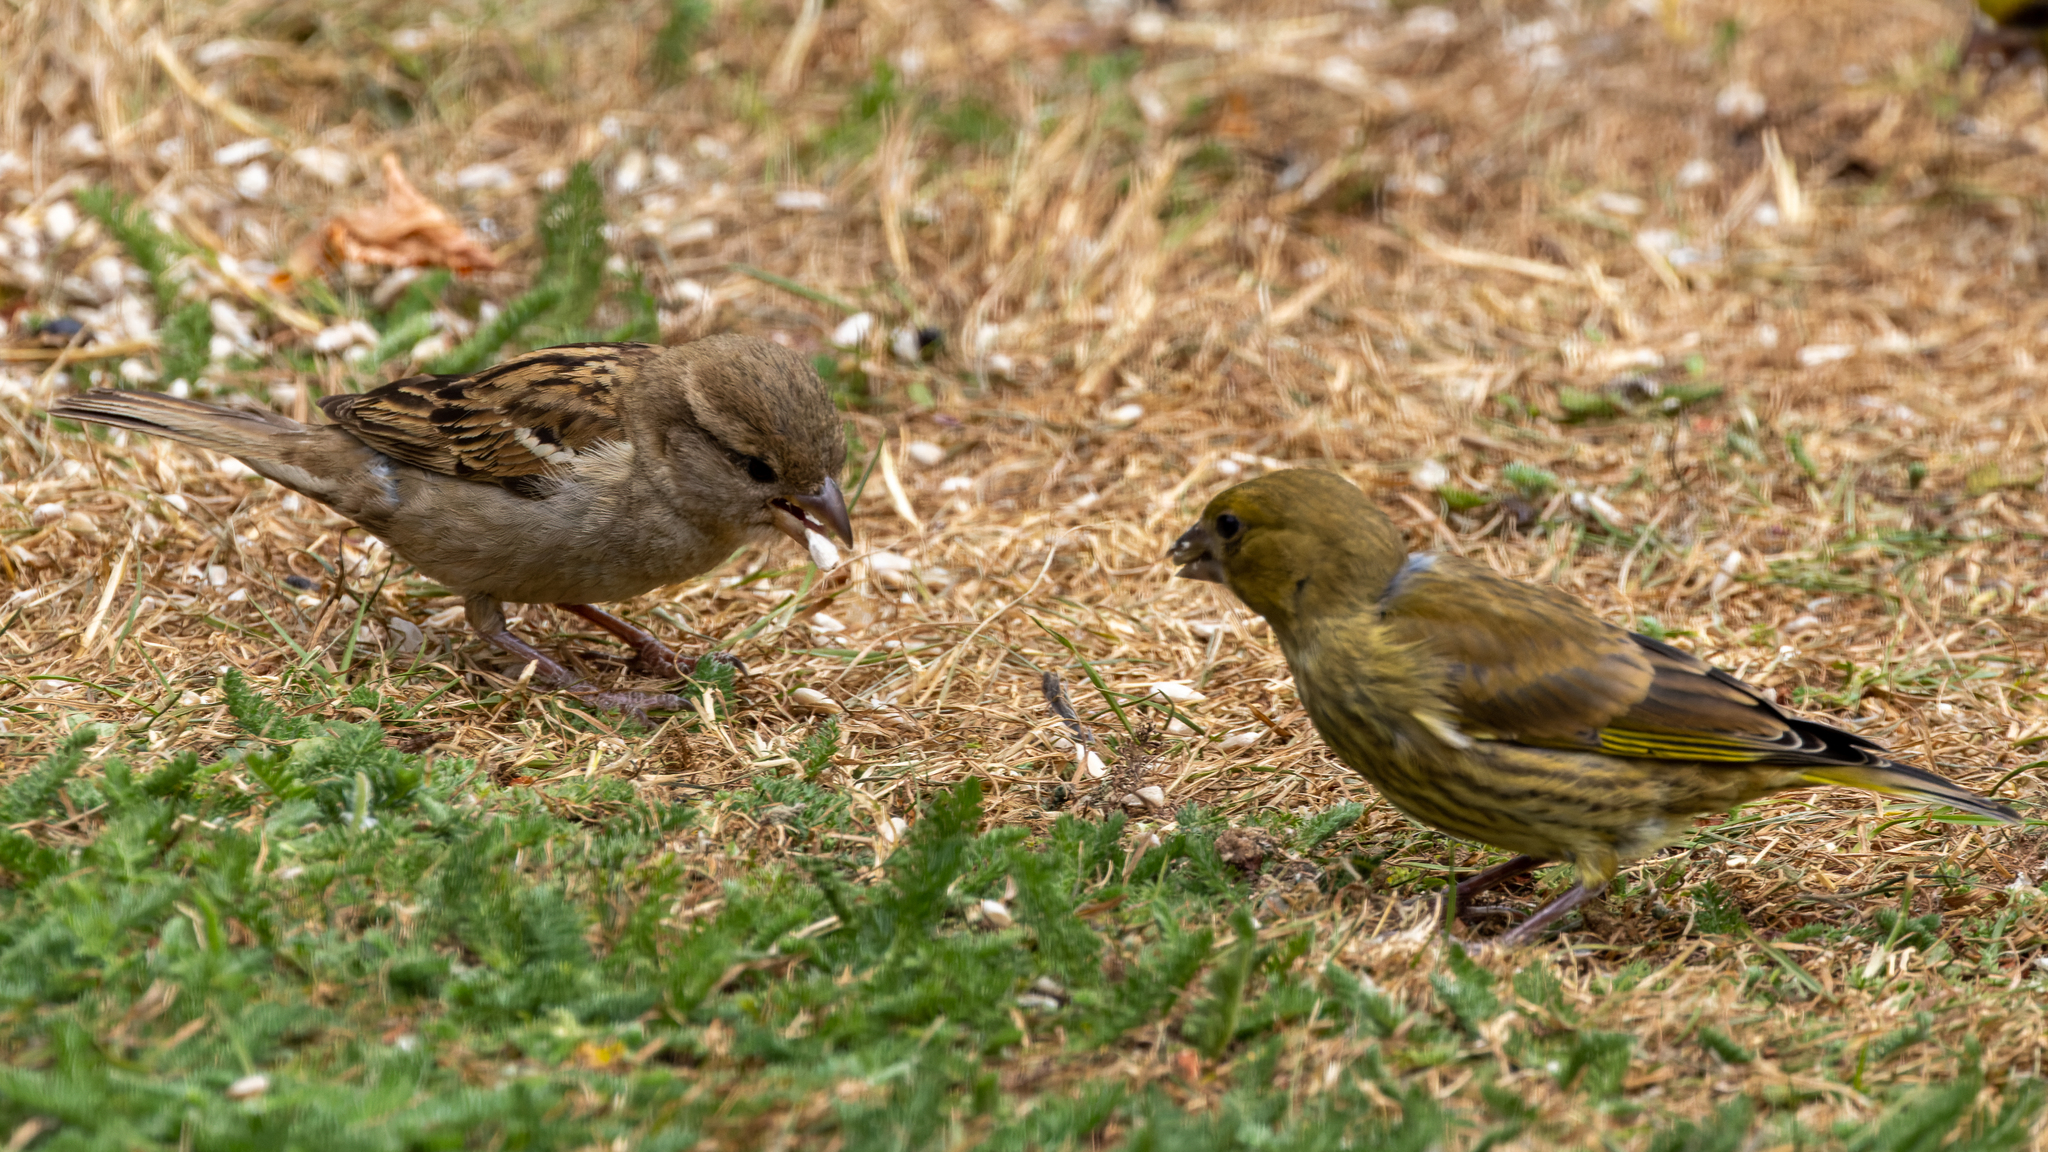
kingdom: Animalia
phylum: Chordata
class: Aves
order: Passeriformes
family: Passeridae
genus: Passer
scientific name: Passer domesticus
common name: House sparrow
